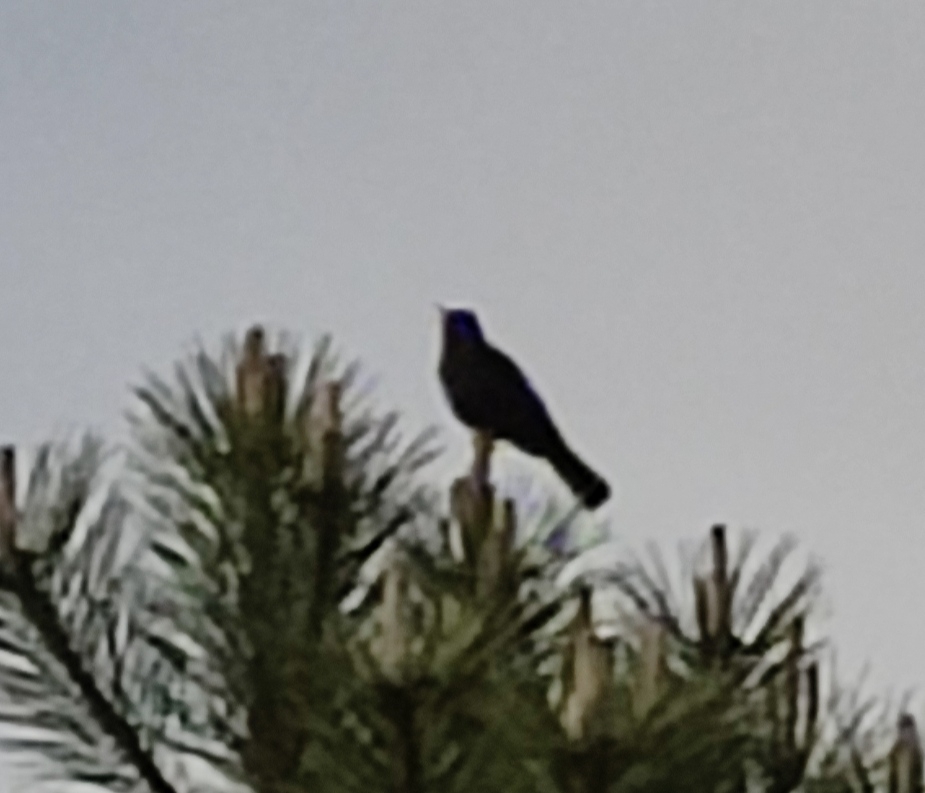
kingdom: Animalia
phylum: Chordata
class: Aves
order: Passeriformes
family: Turdidae
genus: Turdus
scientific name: Turdus merula
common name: Common blackbird
